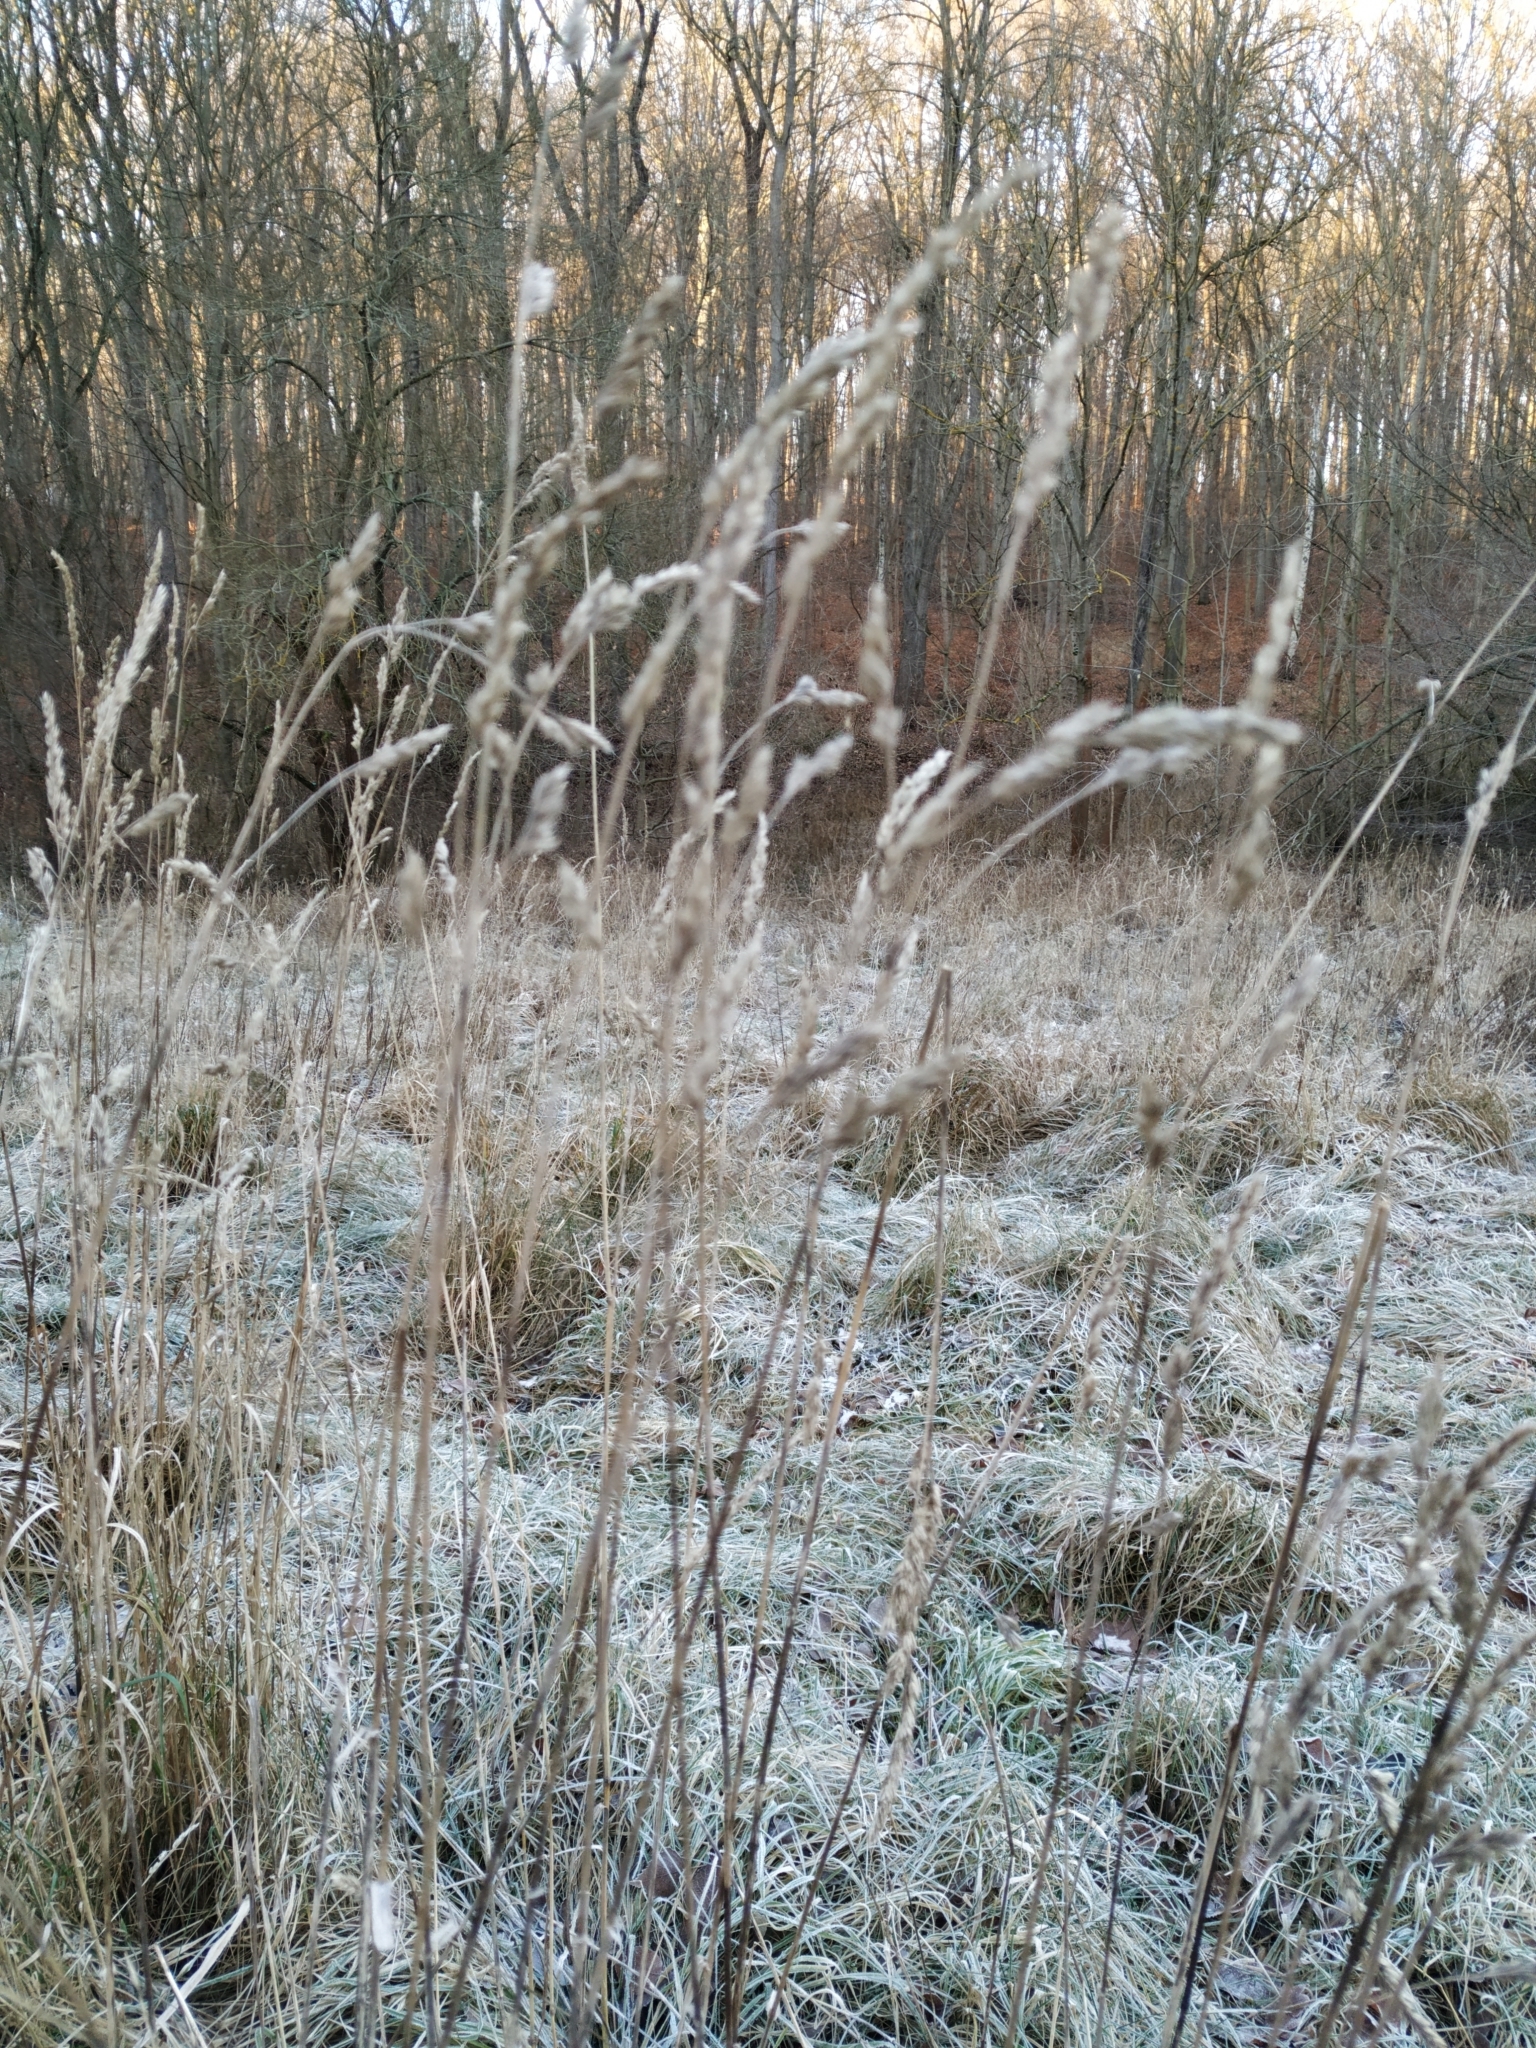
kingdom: Plantae
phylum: Tracheophyta
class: Liliopsida
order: Poales
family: Poaceae
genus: Dactylis
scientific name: Dactylis glomerata
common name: Orchardgrass
